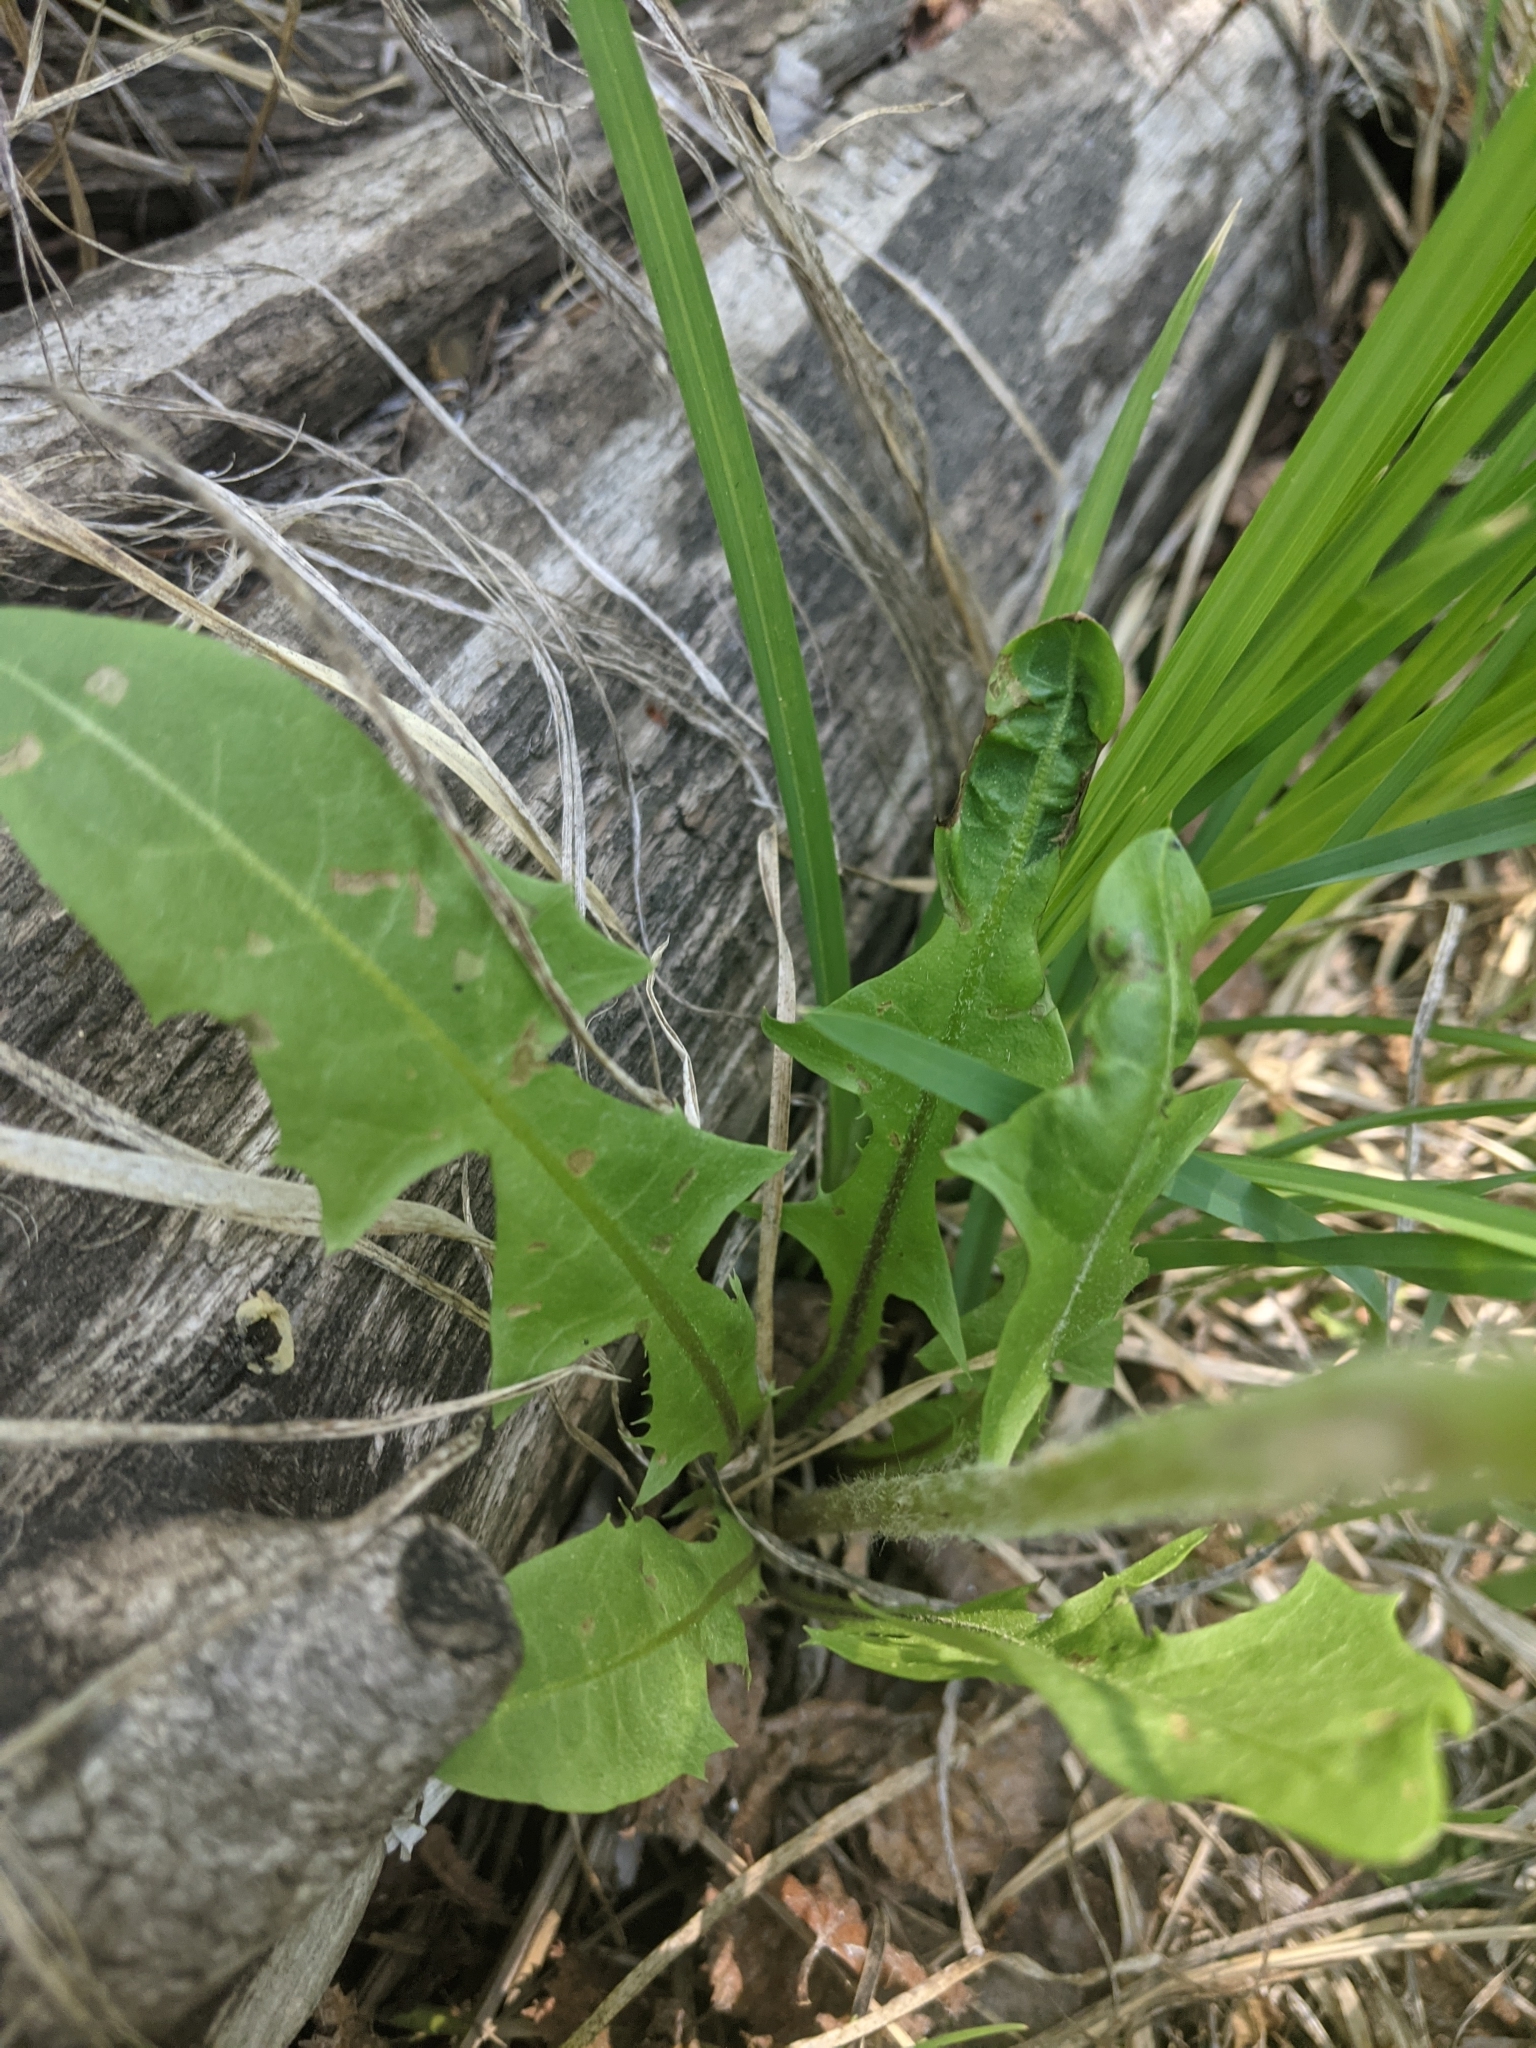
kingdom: Plantae
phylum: Tracheophyta
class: Magnoliopsida
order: Asterales
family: Asteraceae
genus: Taraxacum
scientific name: Taraxacum officinale
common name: Common dandelion
